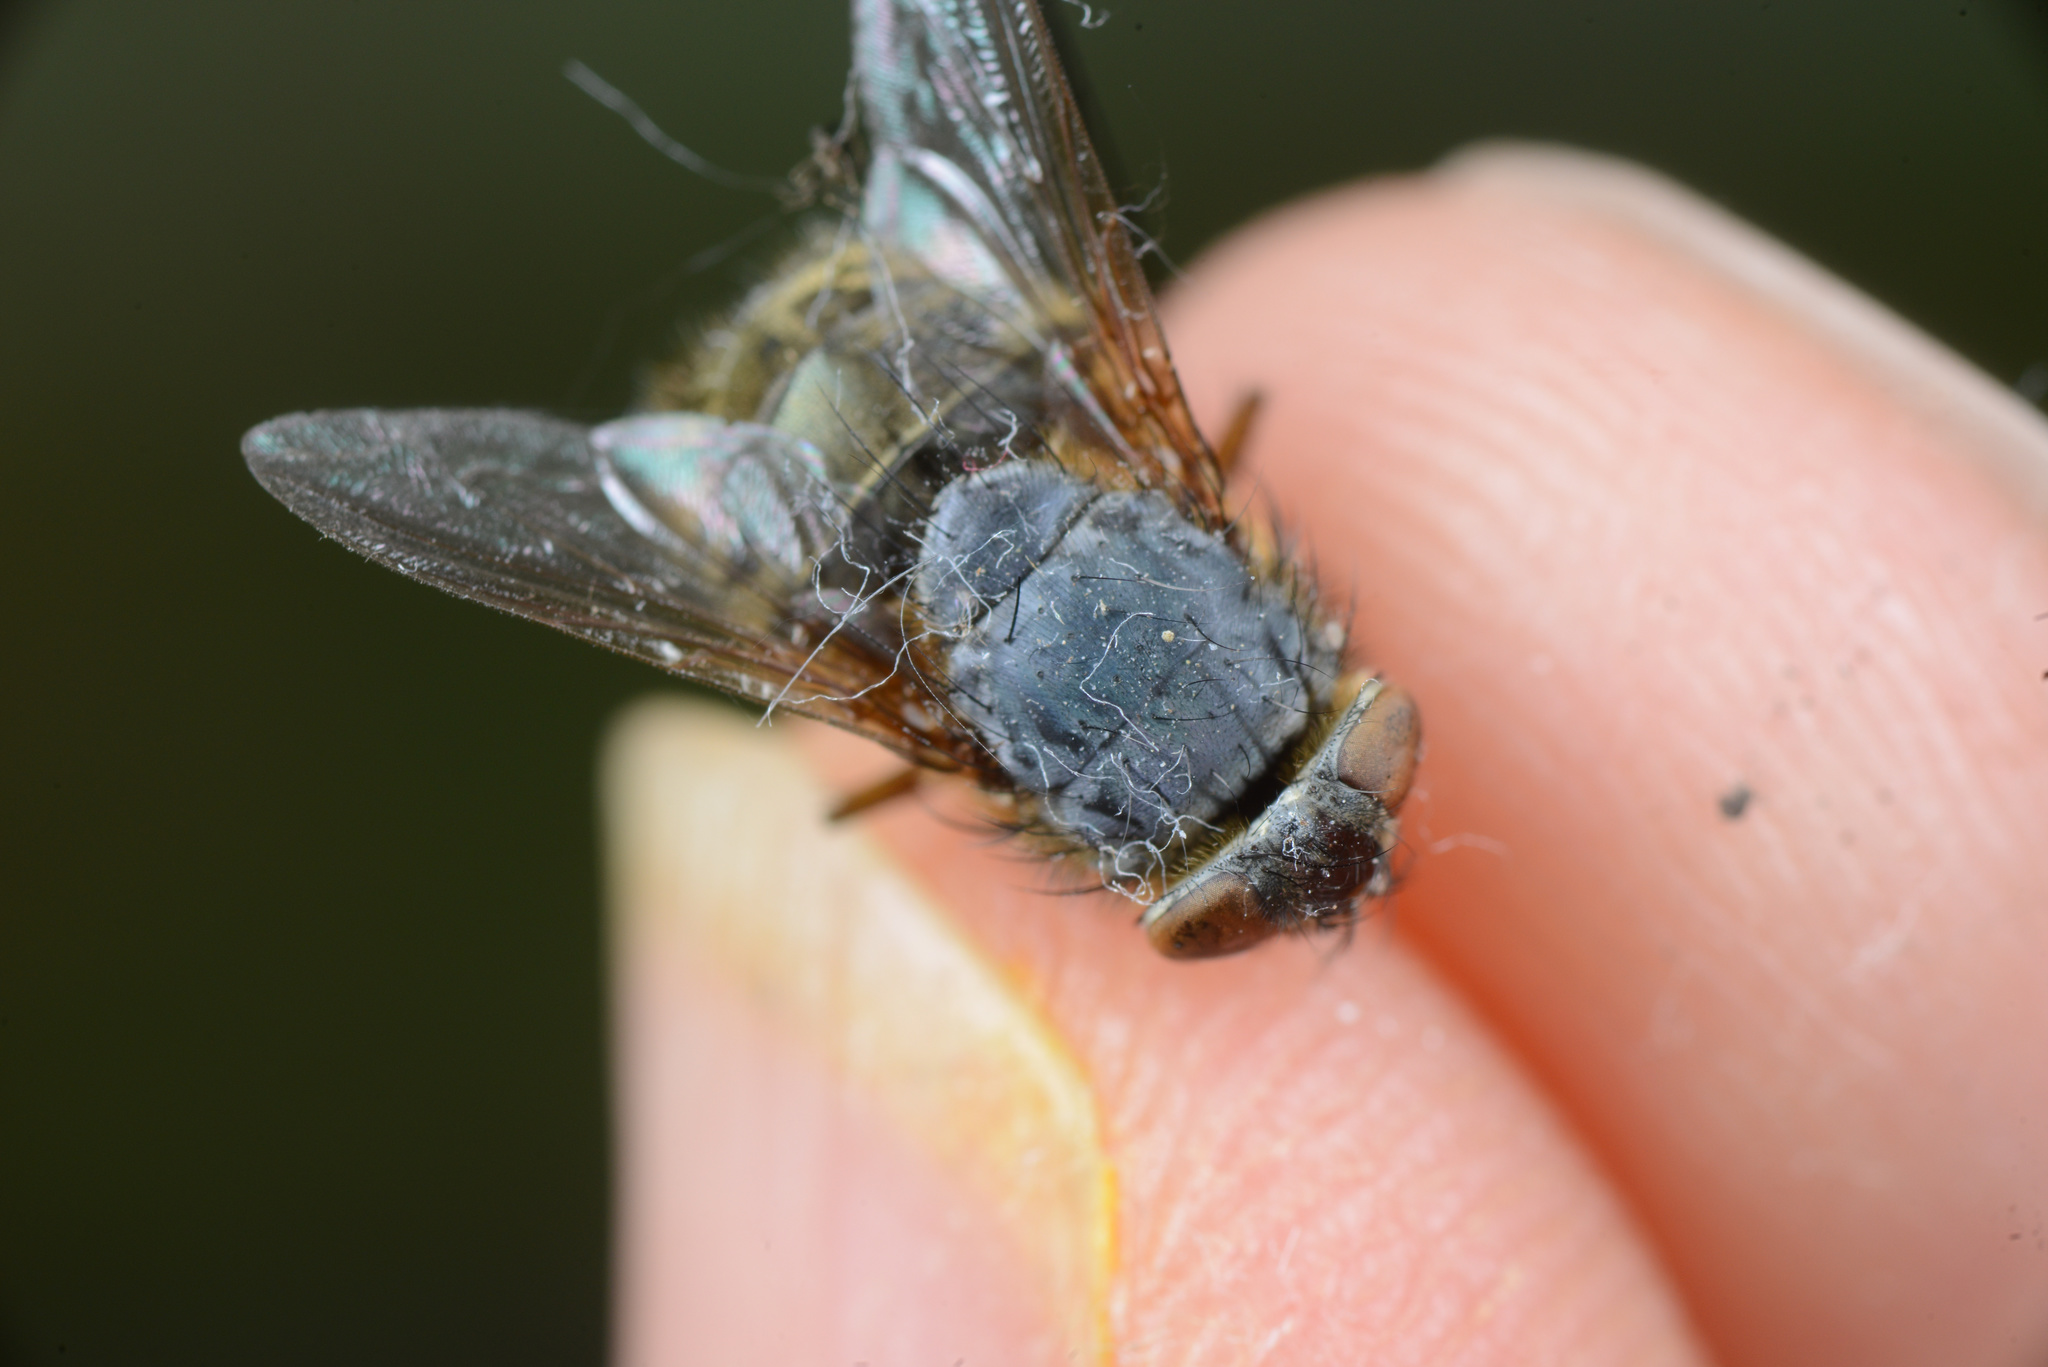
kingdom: Animalia
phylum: Arthropoda
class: Insecta
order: Diptera
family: Calliphoridae
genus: Calliphora
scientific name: Calliphora stygia
